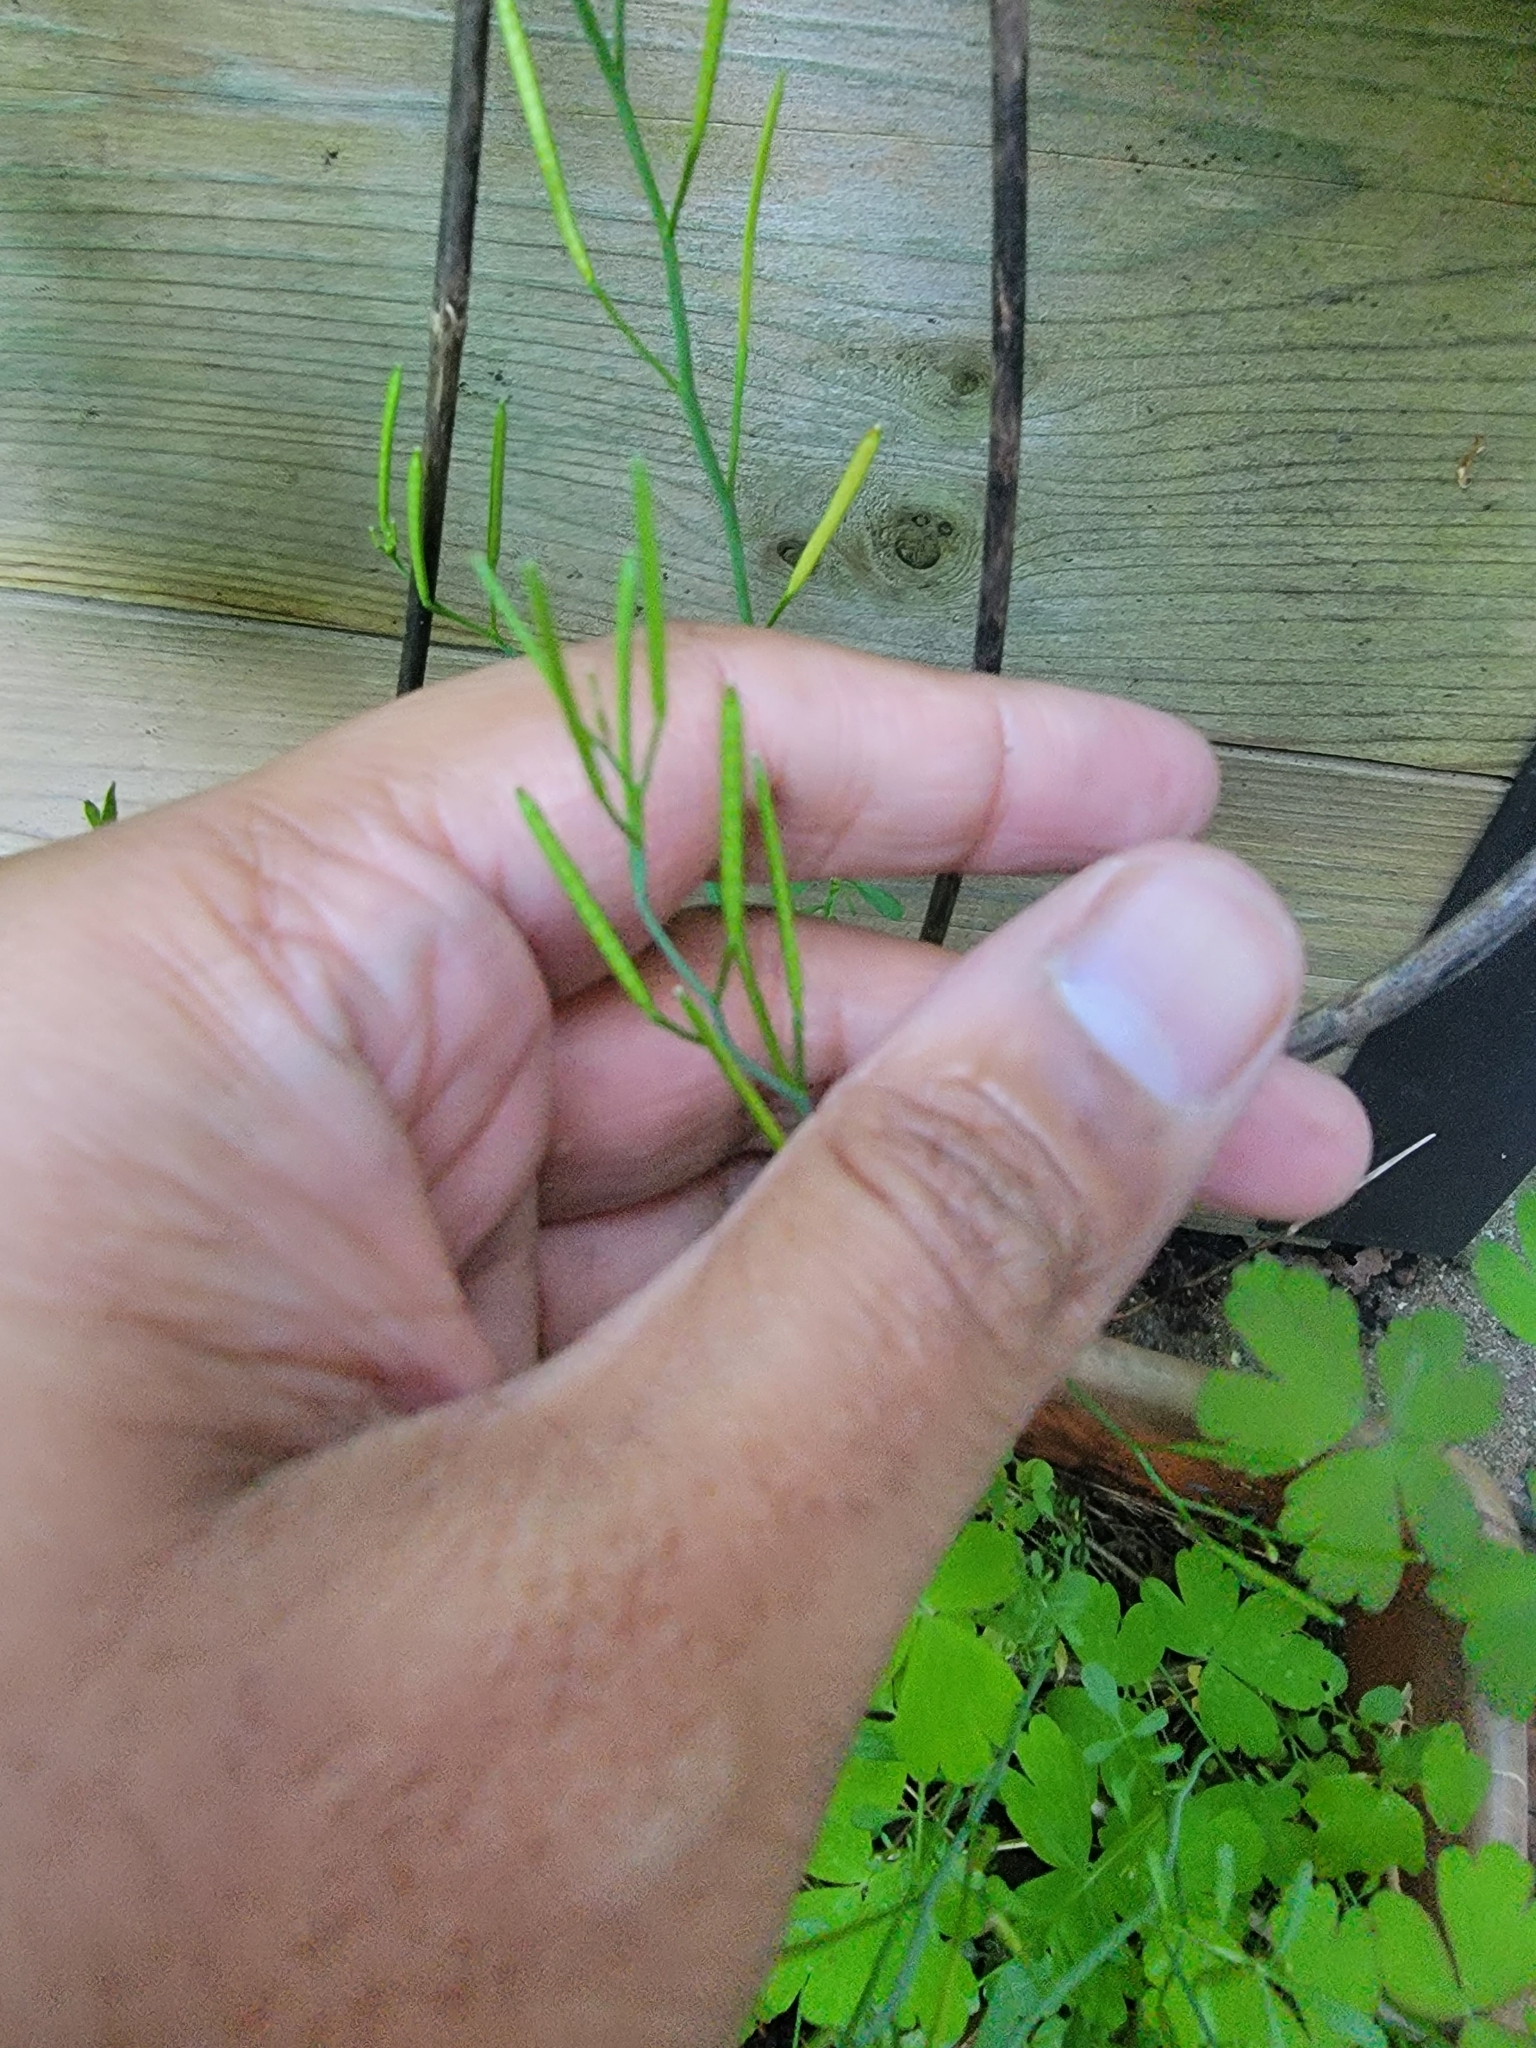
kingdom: Plantae
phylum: Tracheophyta
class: Magnoliopsida
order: Brassicales
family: Brassicaceae
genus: Cardamine
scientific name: Cardamine hirsuta
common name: Hairy bittercress
